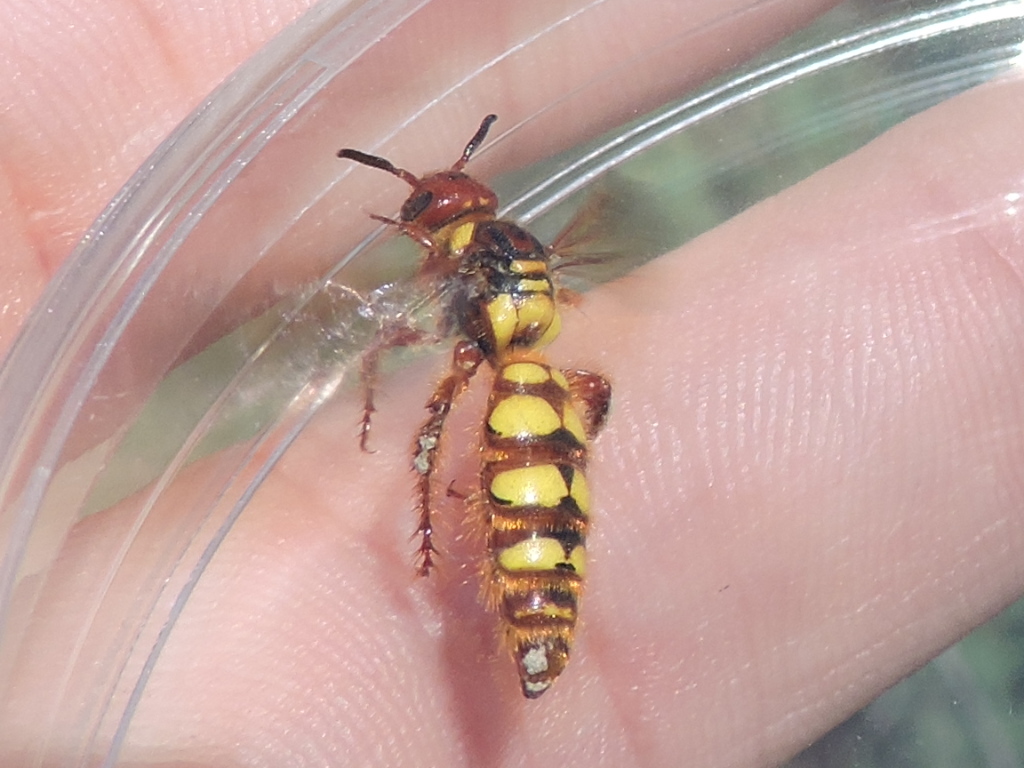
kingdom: Animalia
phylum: Arthropoda
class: Insecta
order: Hymenoptera
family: Scoliidae
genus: Colpa
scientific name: Colpa octomaculata
